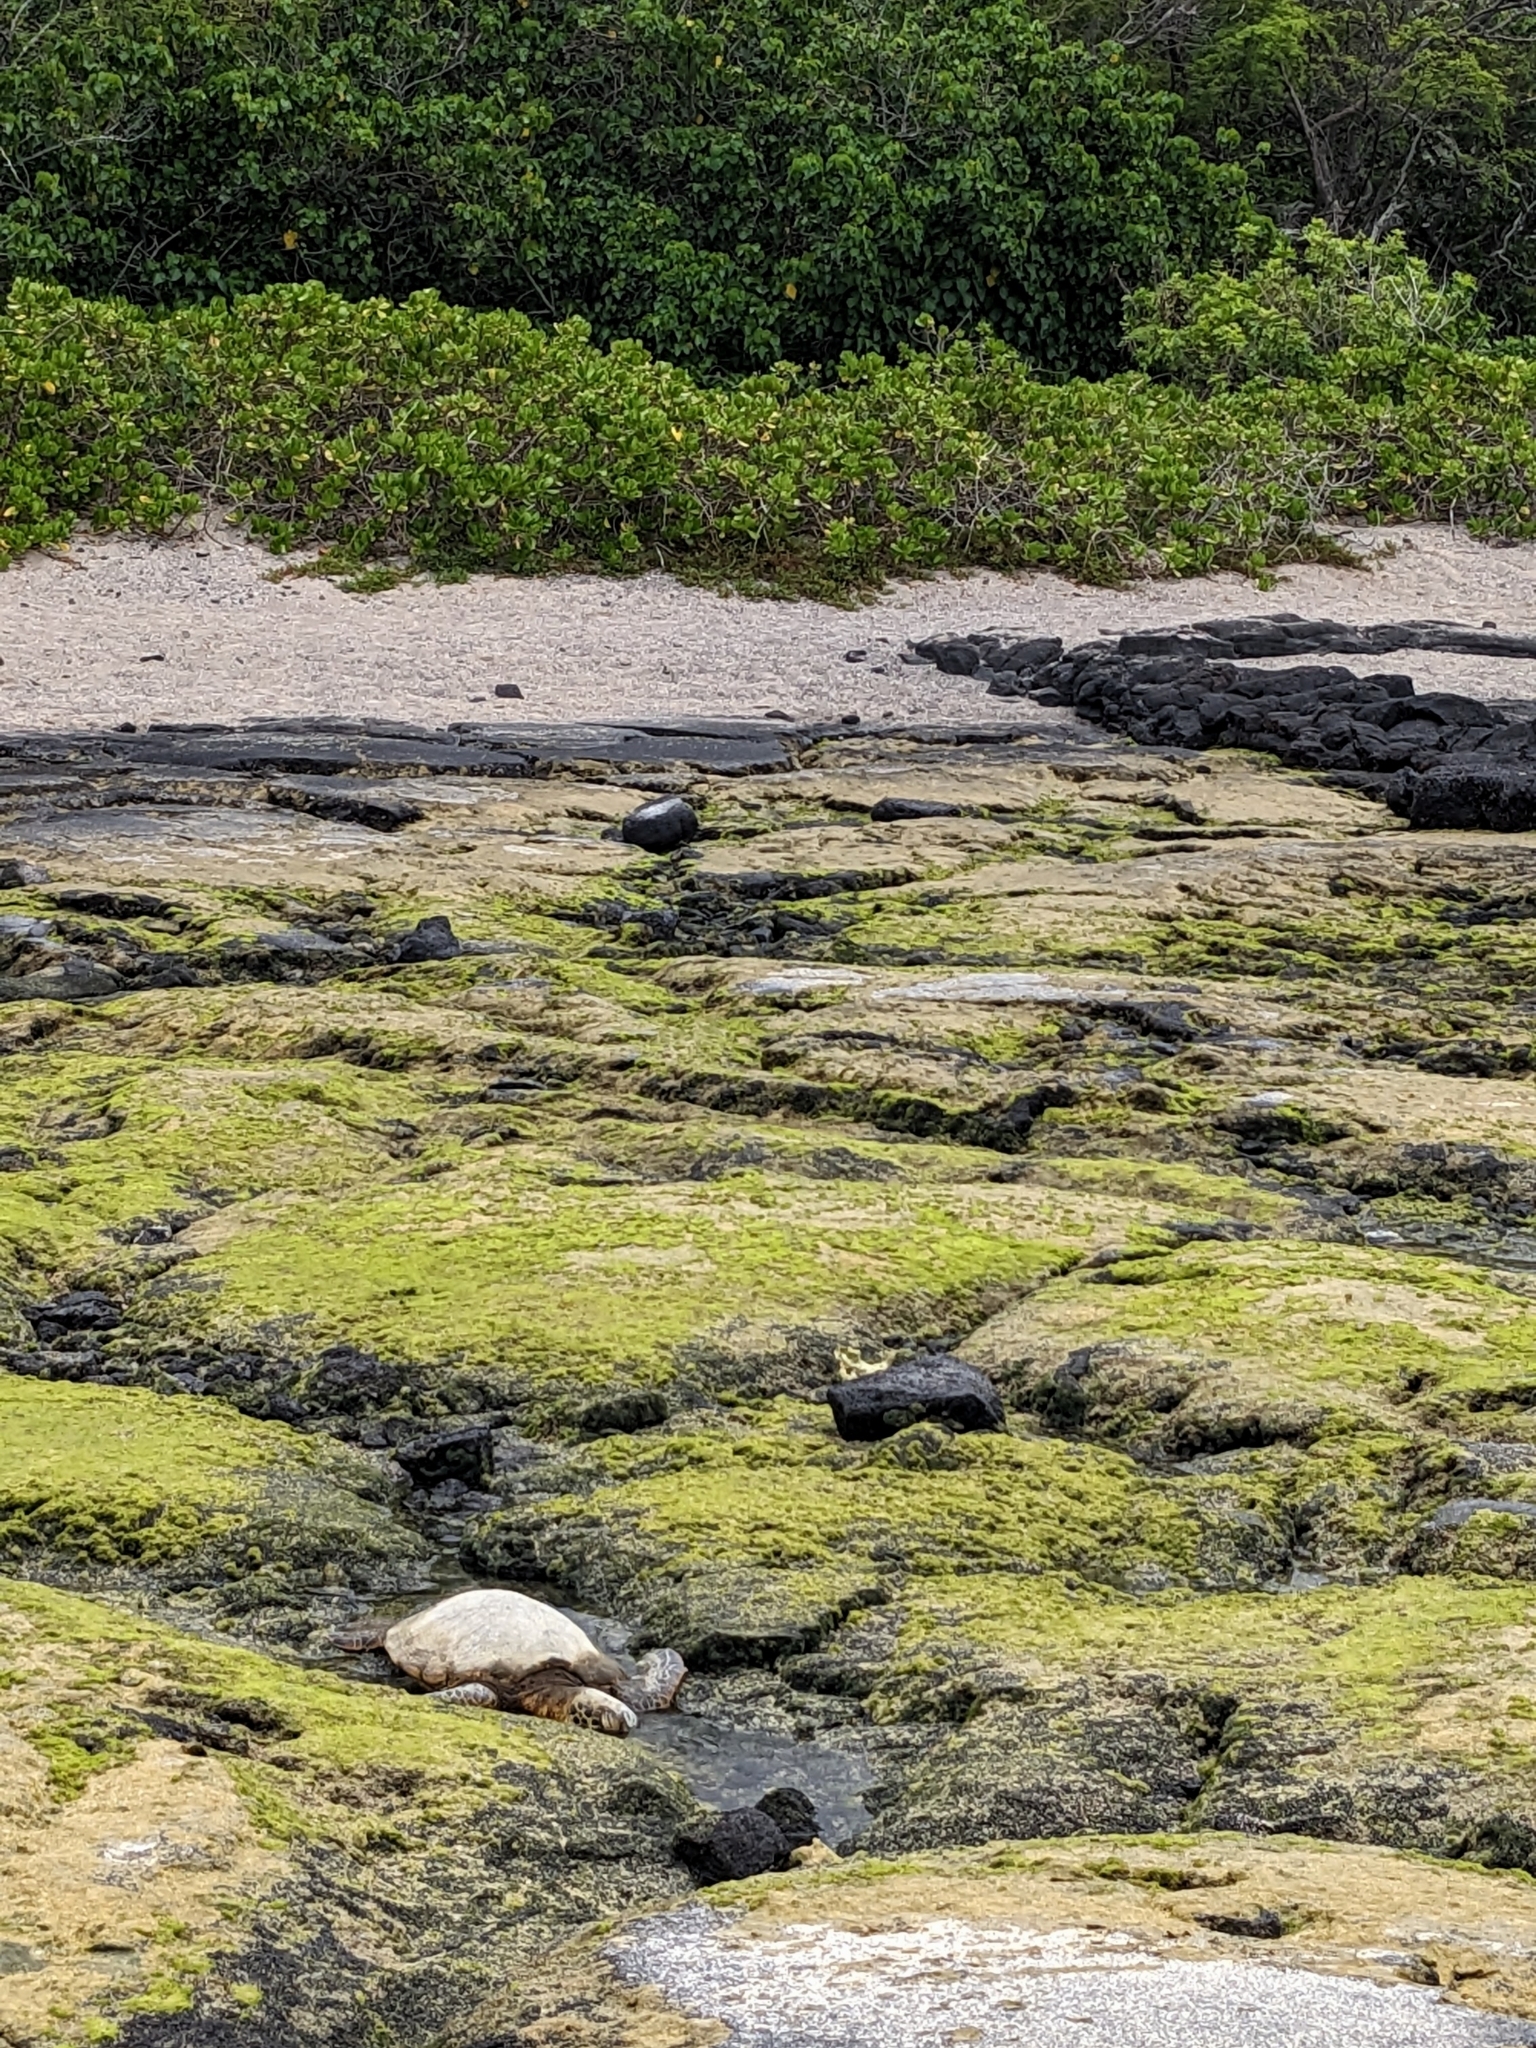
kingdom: Animalia
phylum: Chordata
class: Testudines
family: Cheloniidae
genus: Chelonia
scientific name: Chelonia mydas
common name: Green turtle
